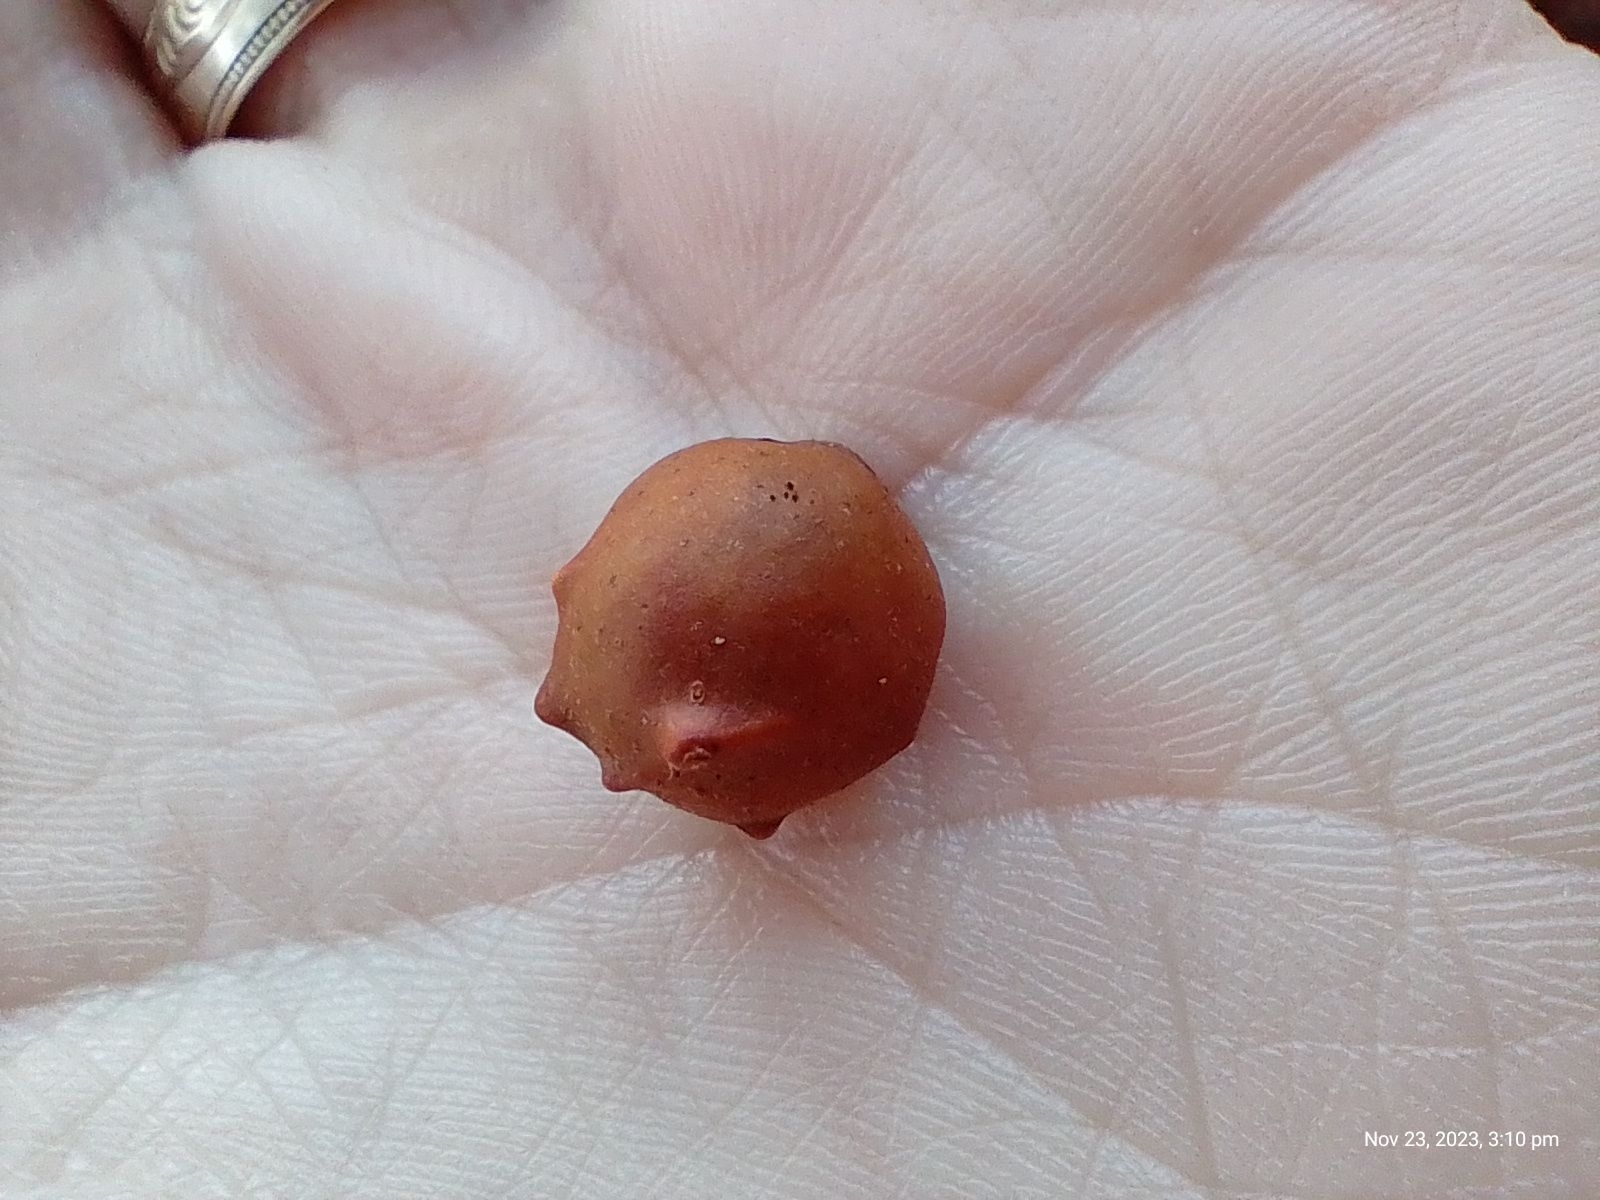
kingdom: Animalia
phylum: Arthropoda
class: Insecta
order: Hymenoptera
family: Cynipidae
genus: Andricus
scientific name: Andricus infectorius
